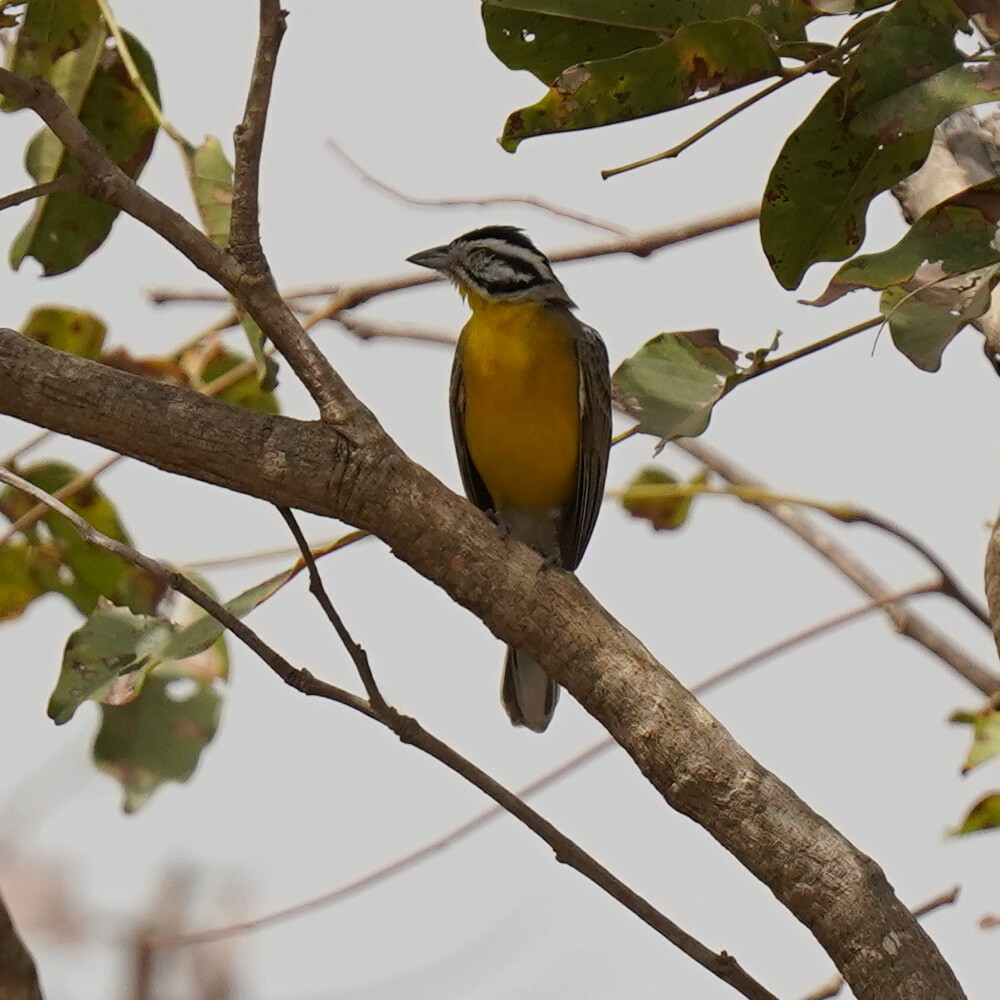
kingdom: Animalia
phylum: Chordata
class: Aves
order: Passeriformes
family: Emberizidae
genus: Emberiza
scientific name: Emberiza affinis
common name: Brown-rumped bunting
